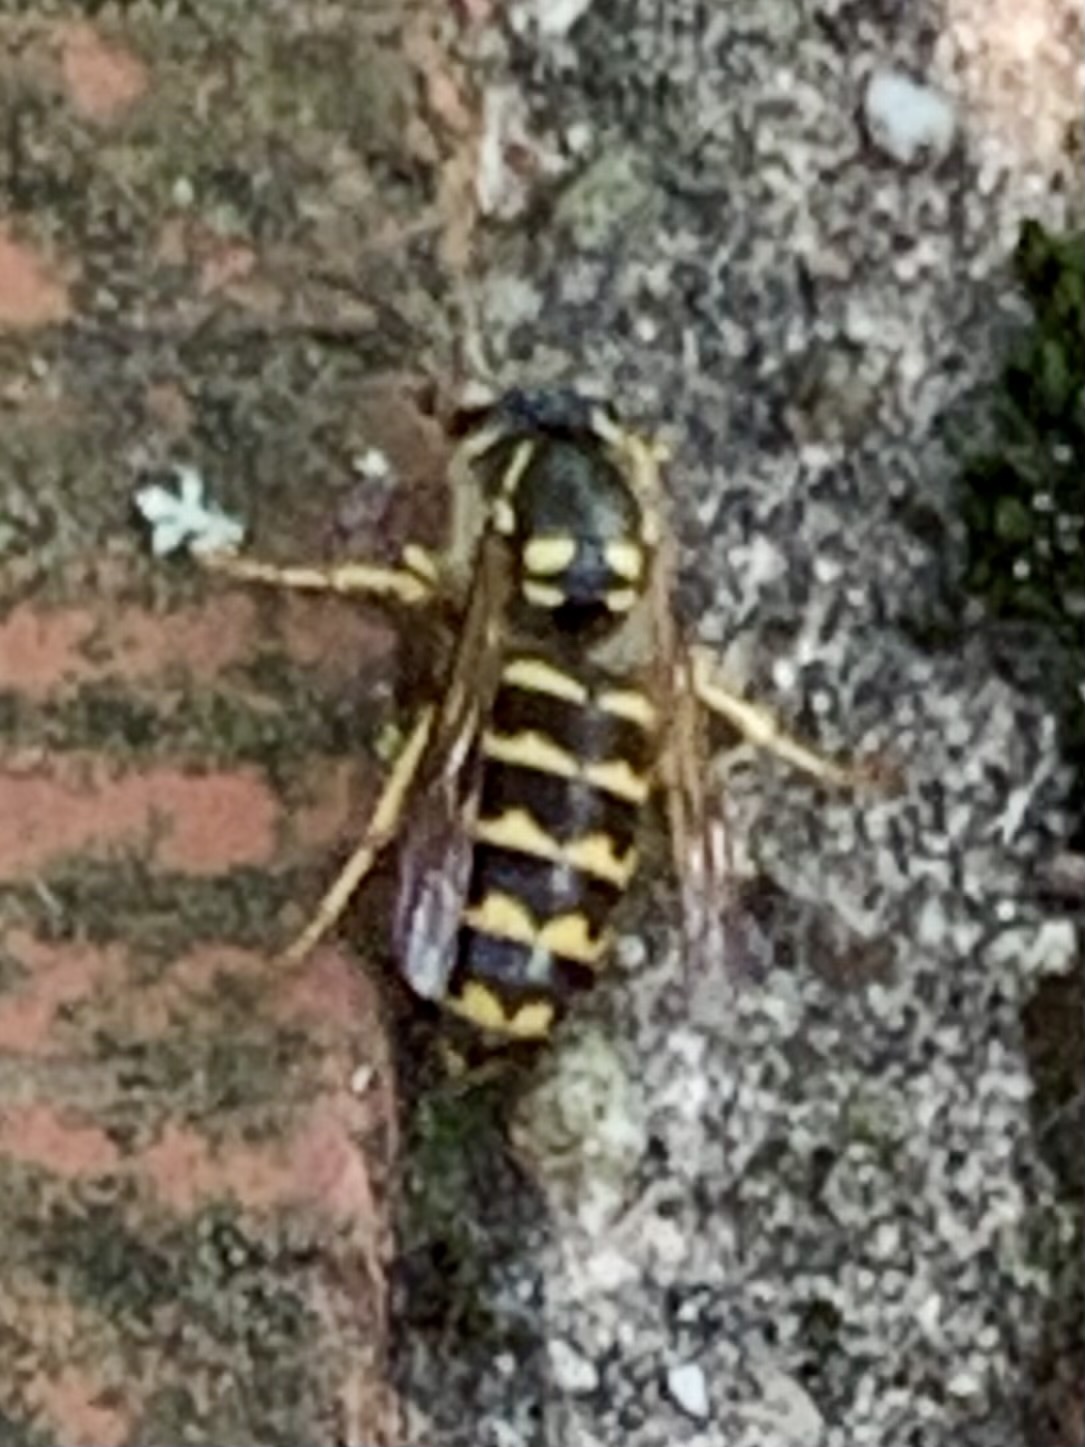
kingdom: Animalia
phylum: Arthropoda
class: Insecta
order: Hymenoptera
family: Vespidae
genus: Dolichovespula
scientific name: Dolichovespula arenaria
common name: Aerial yellowjacket
